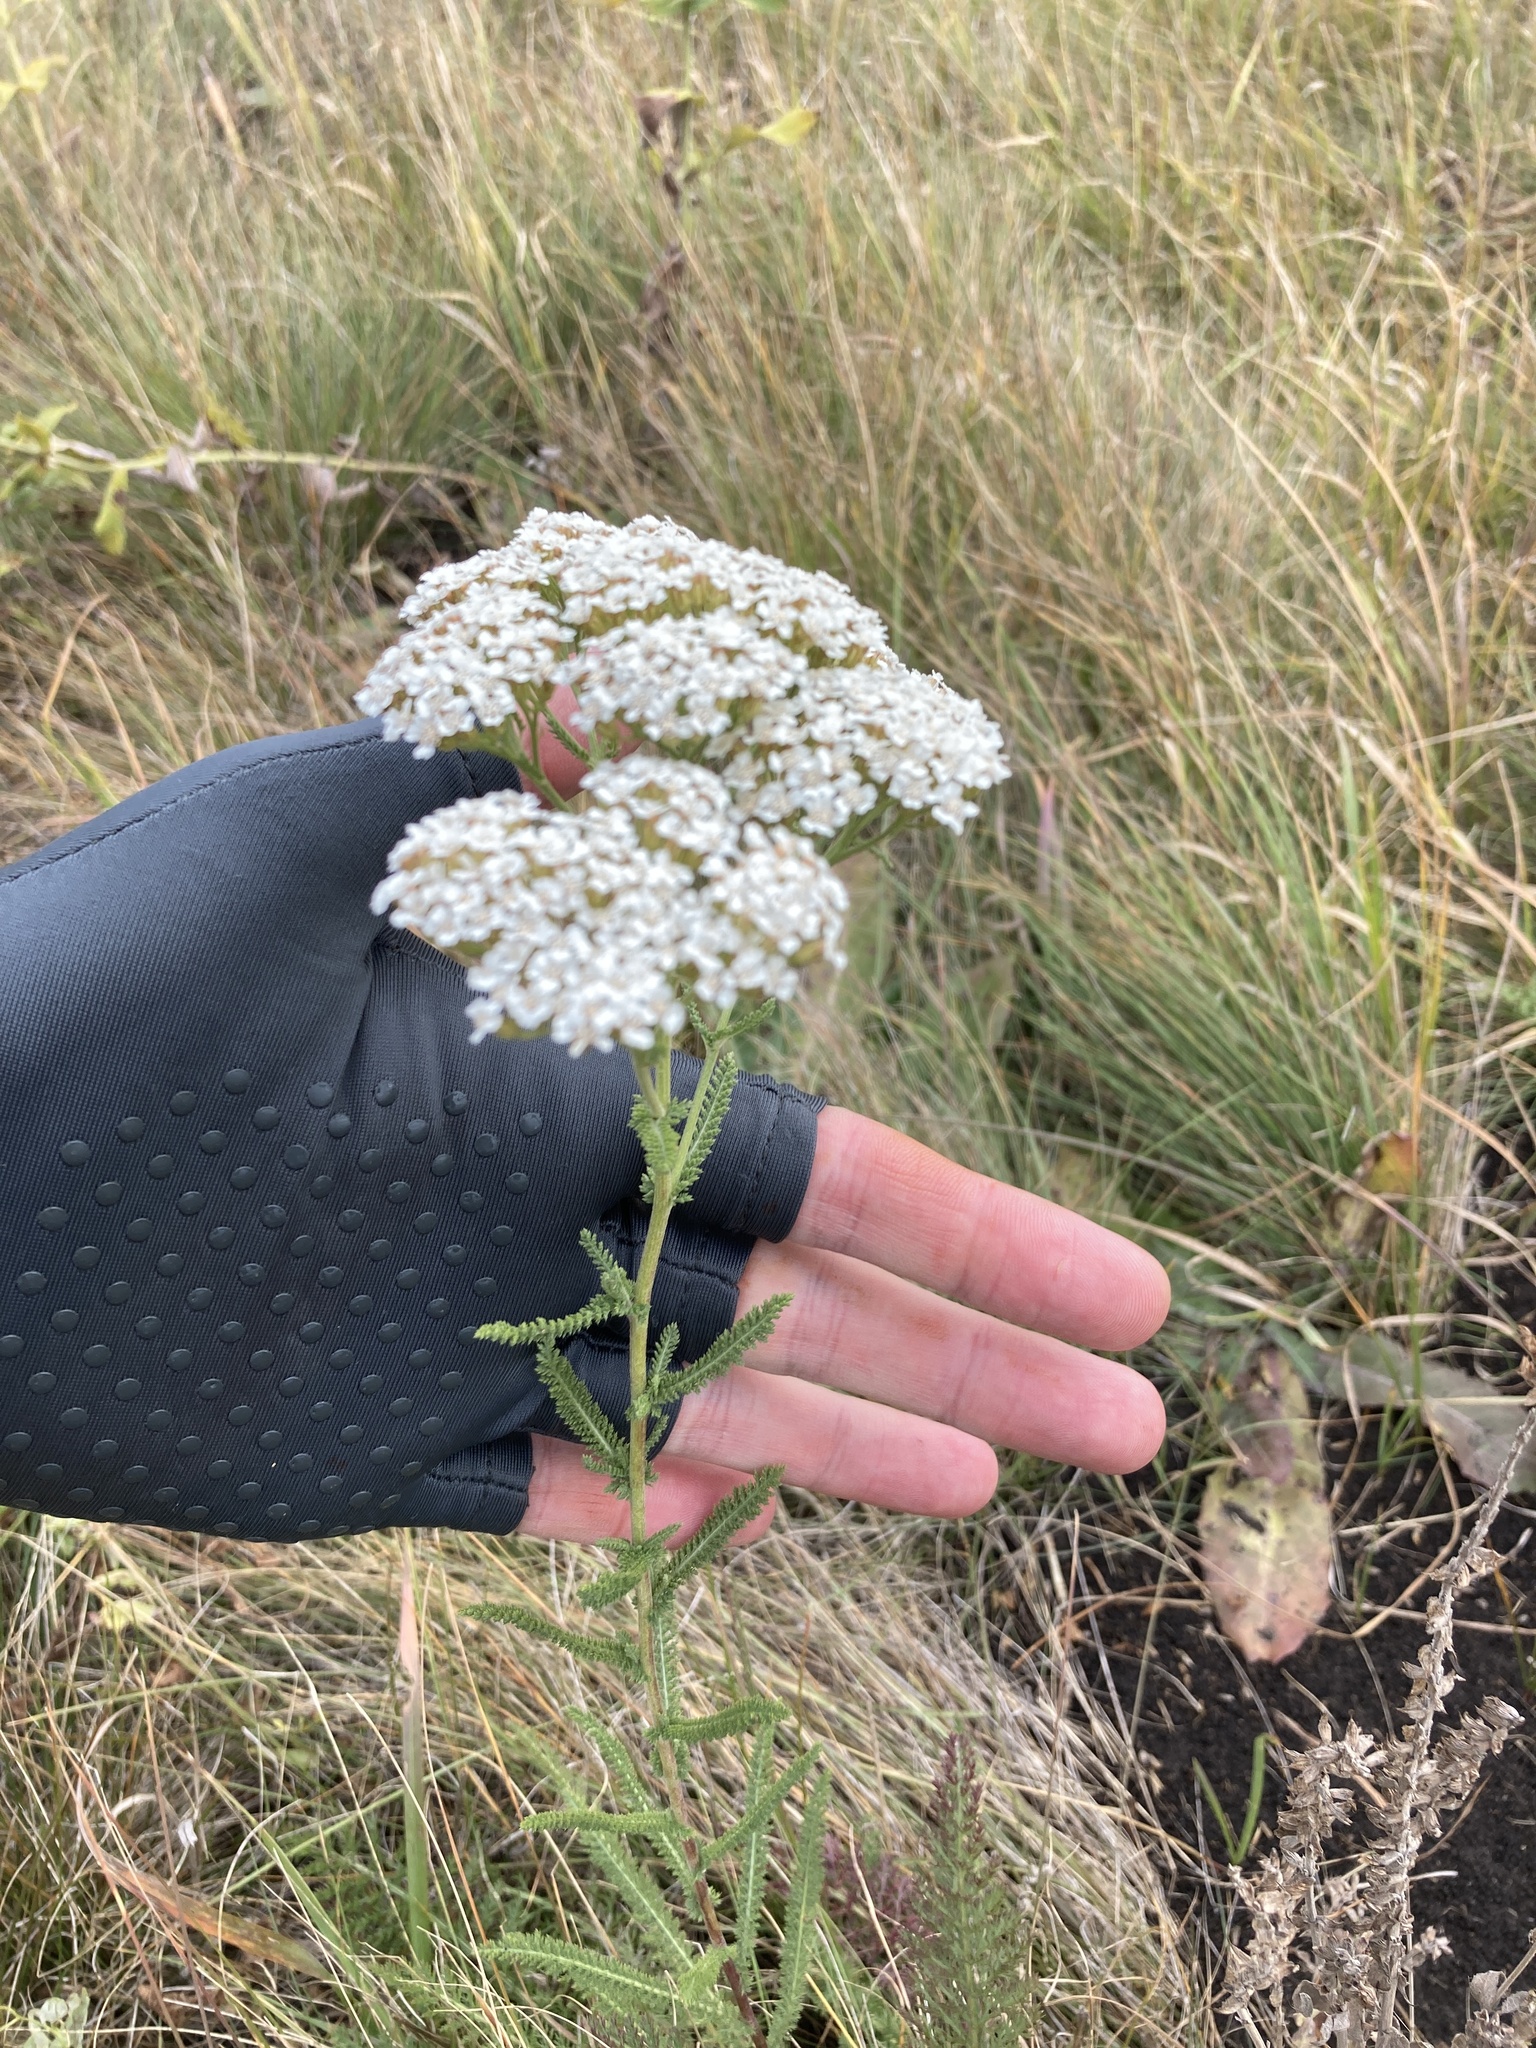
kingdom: Plantae
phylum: Tracheophyta
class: Magnoliopsida
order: Asterales
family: Asteraceae
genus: Achillea
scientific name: Achillea setacea
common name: Bristly yarrow
